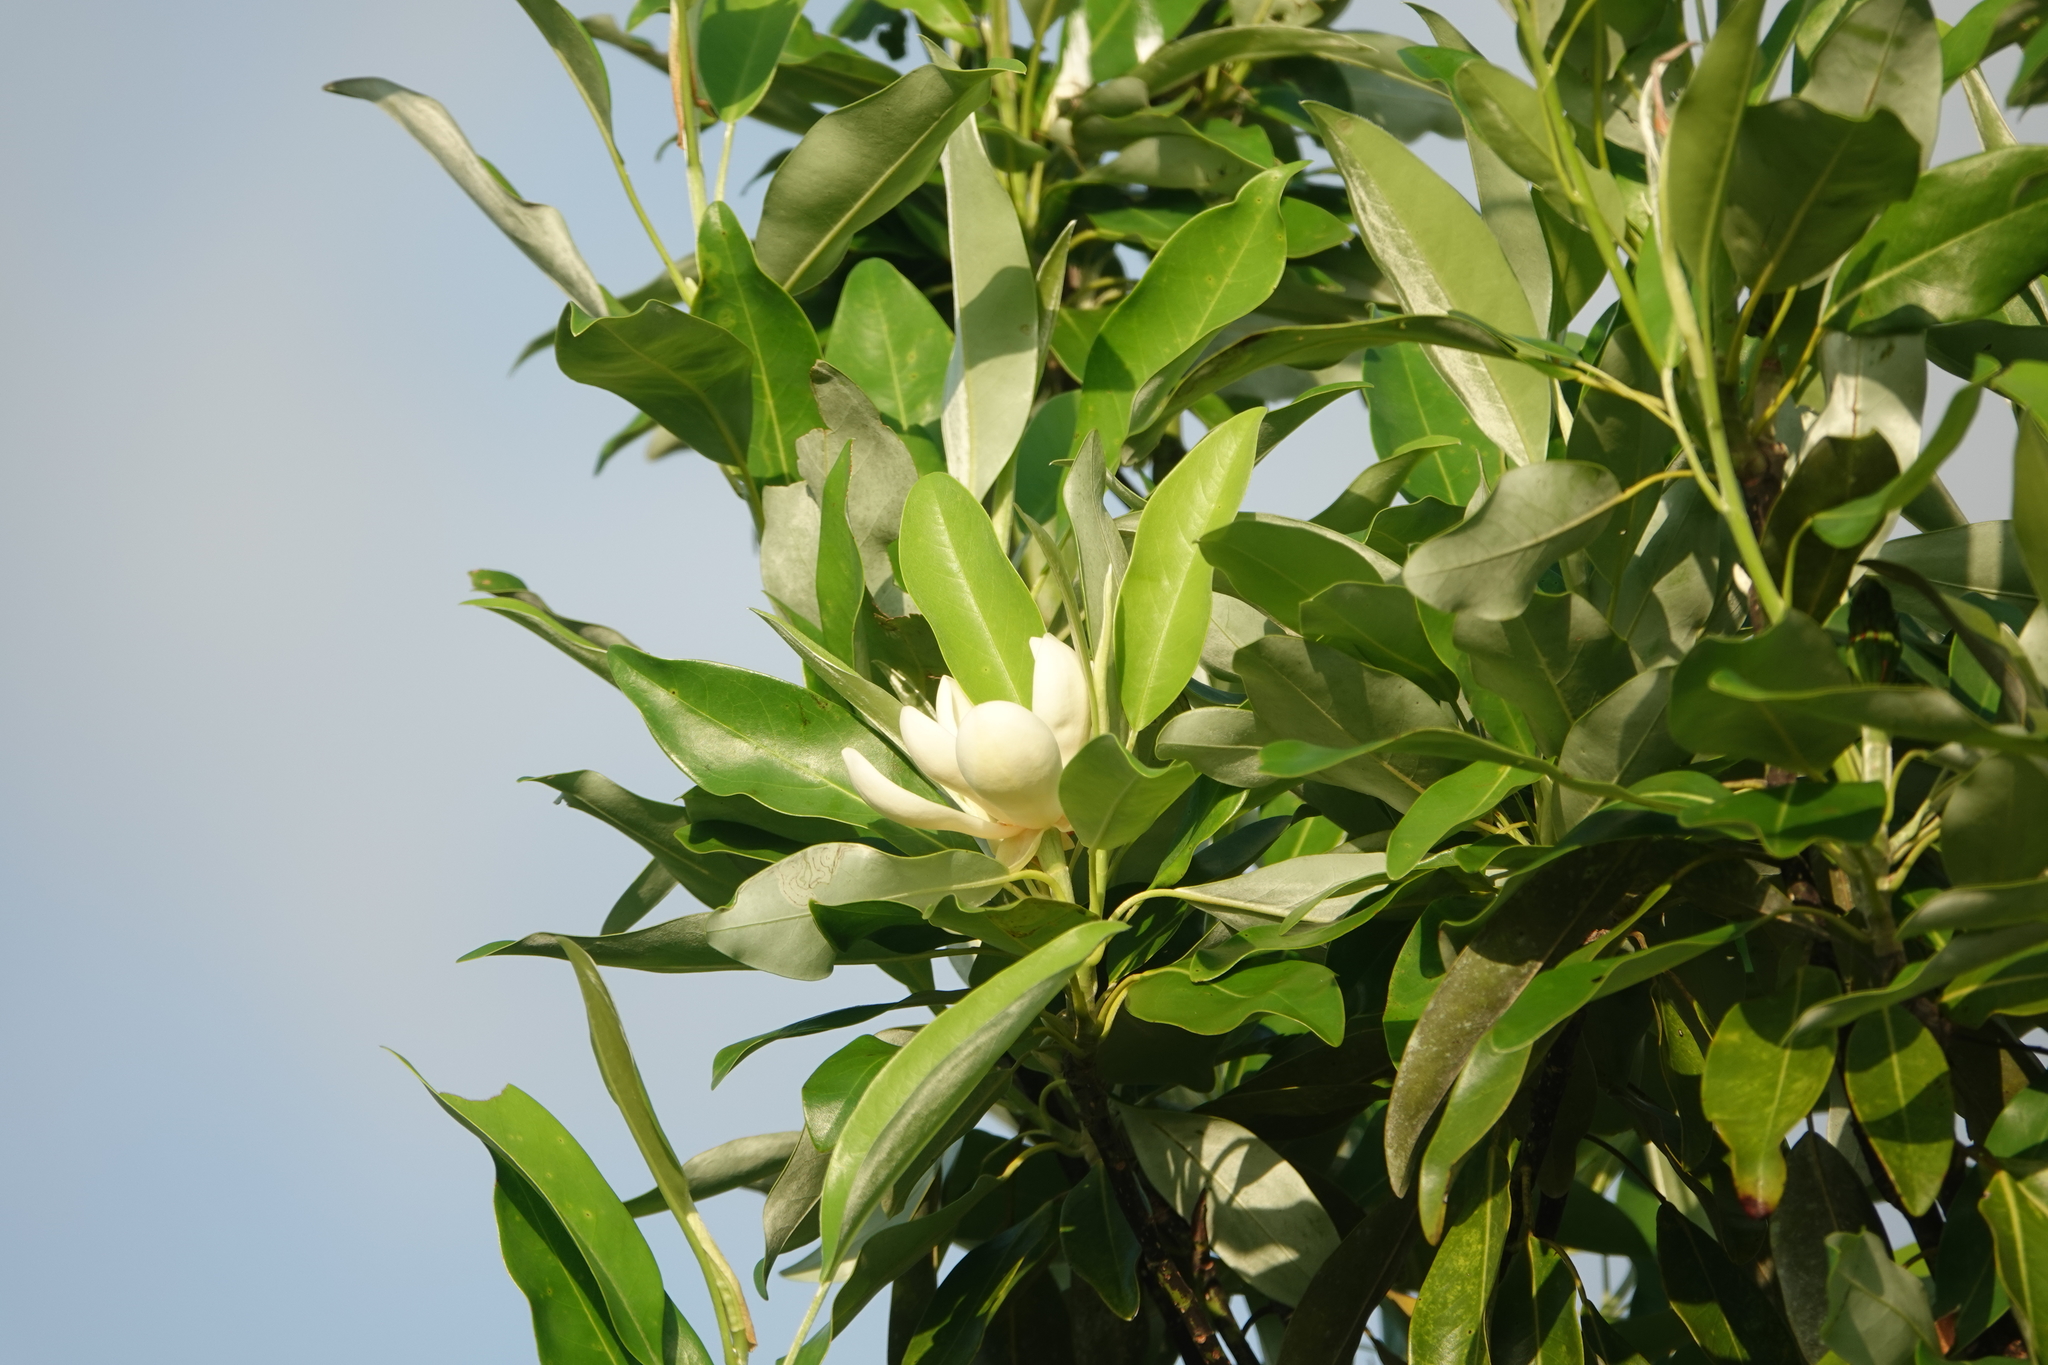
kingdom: Plantae
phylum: Tracheophyta
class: Magnoliopsida
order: Magnoliales
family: Magnoliaceae
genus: Magnolia
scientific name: Magnolia virginiana
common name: Swamp bay
